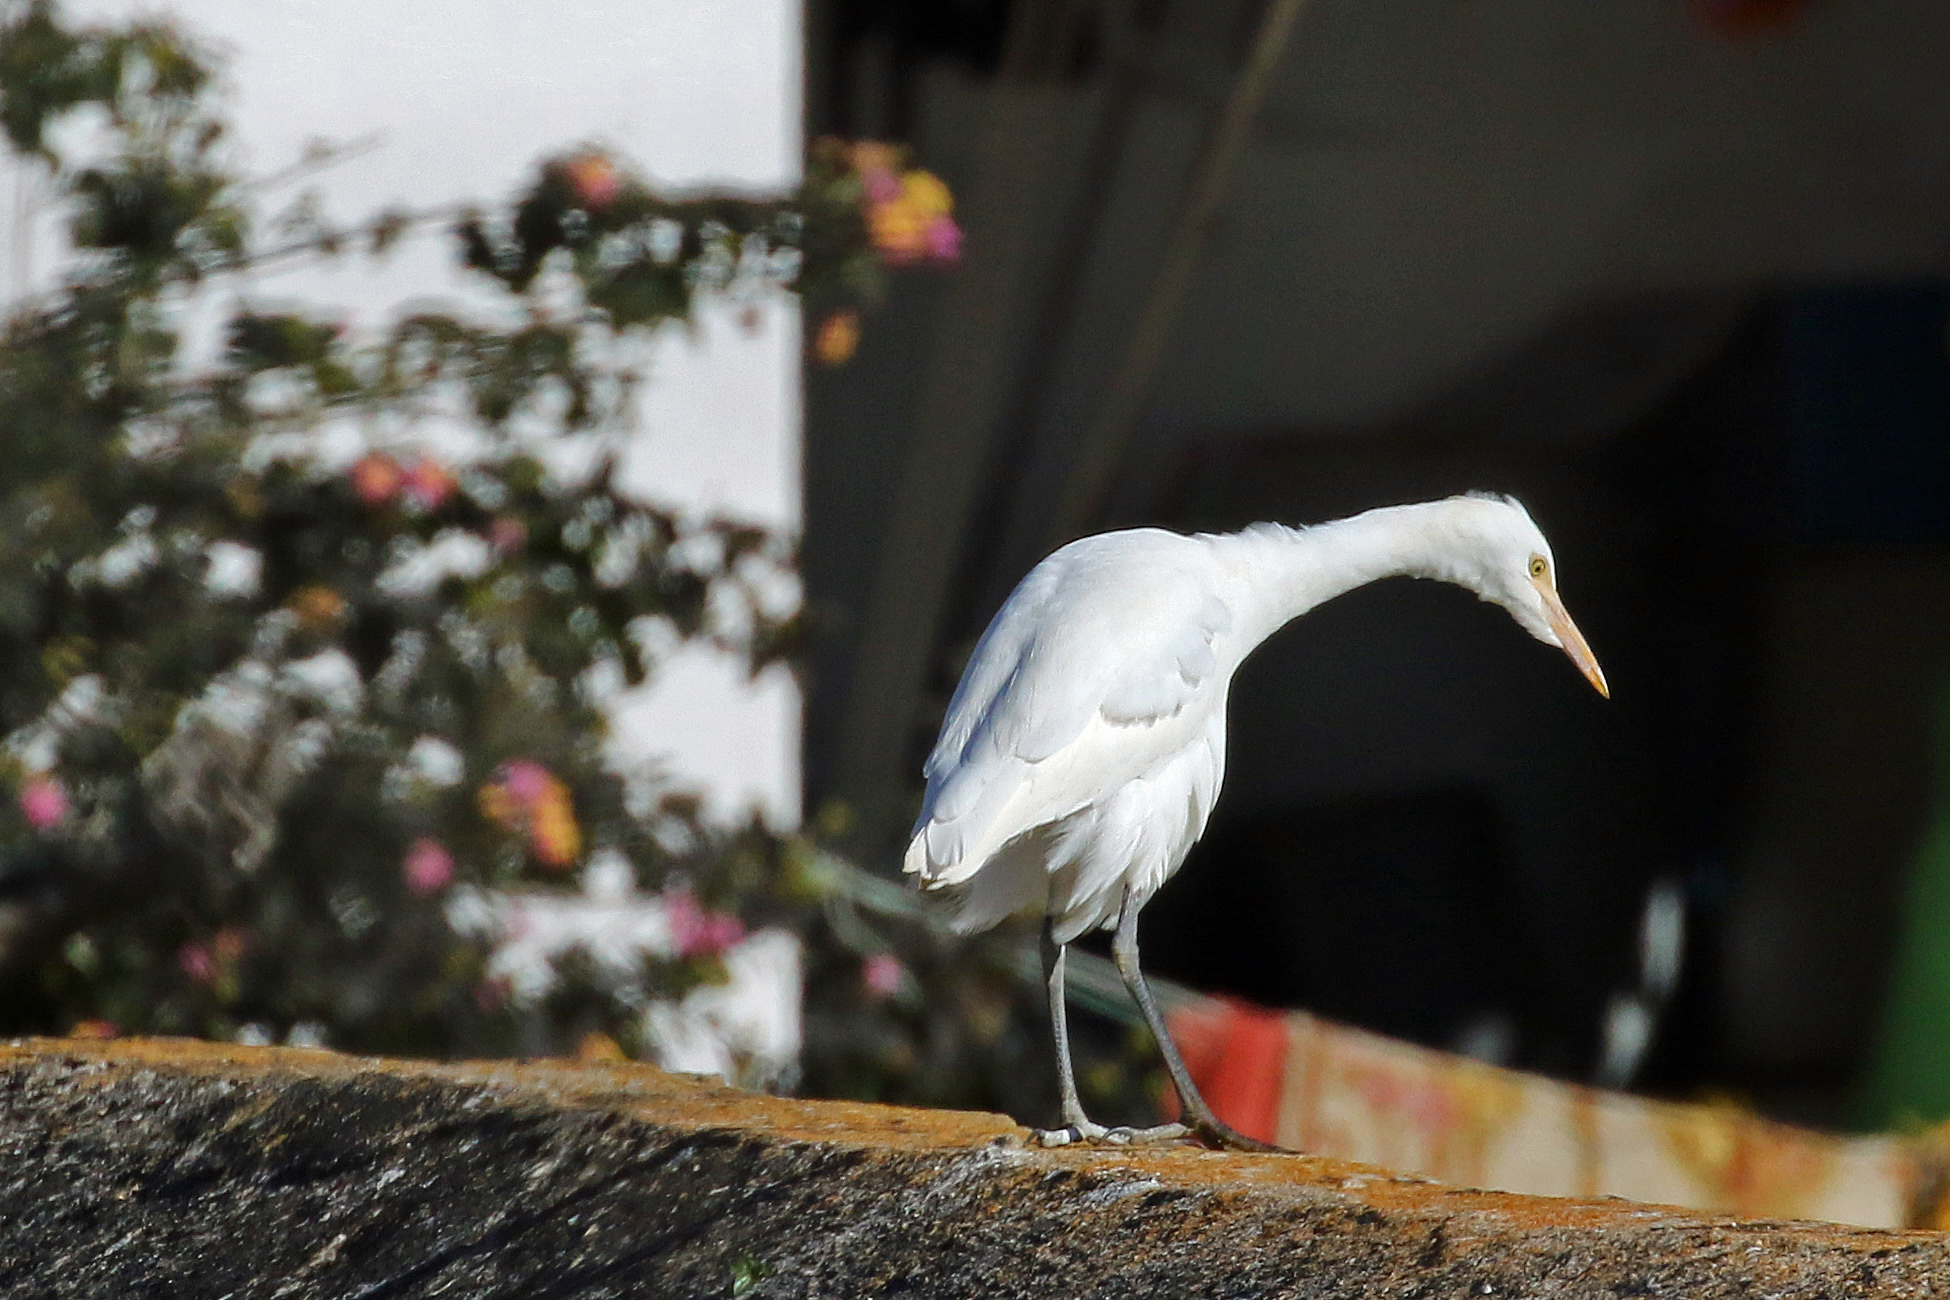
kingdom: Animalia
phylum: Chordata
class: Aves
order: Pelecaniformes
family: Ardeidae
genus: Bubulcus
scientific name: Bubulcus ibis
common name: Cattle egret
